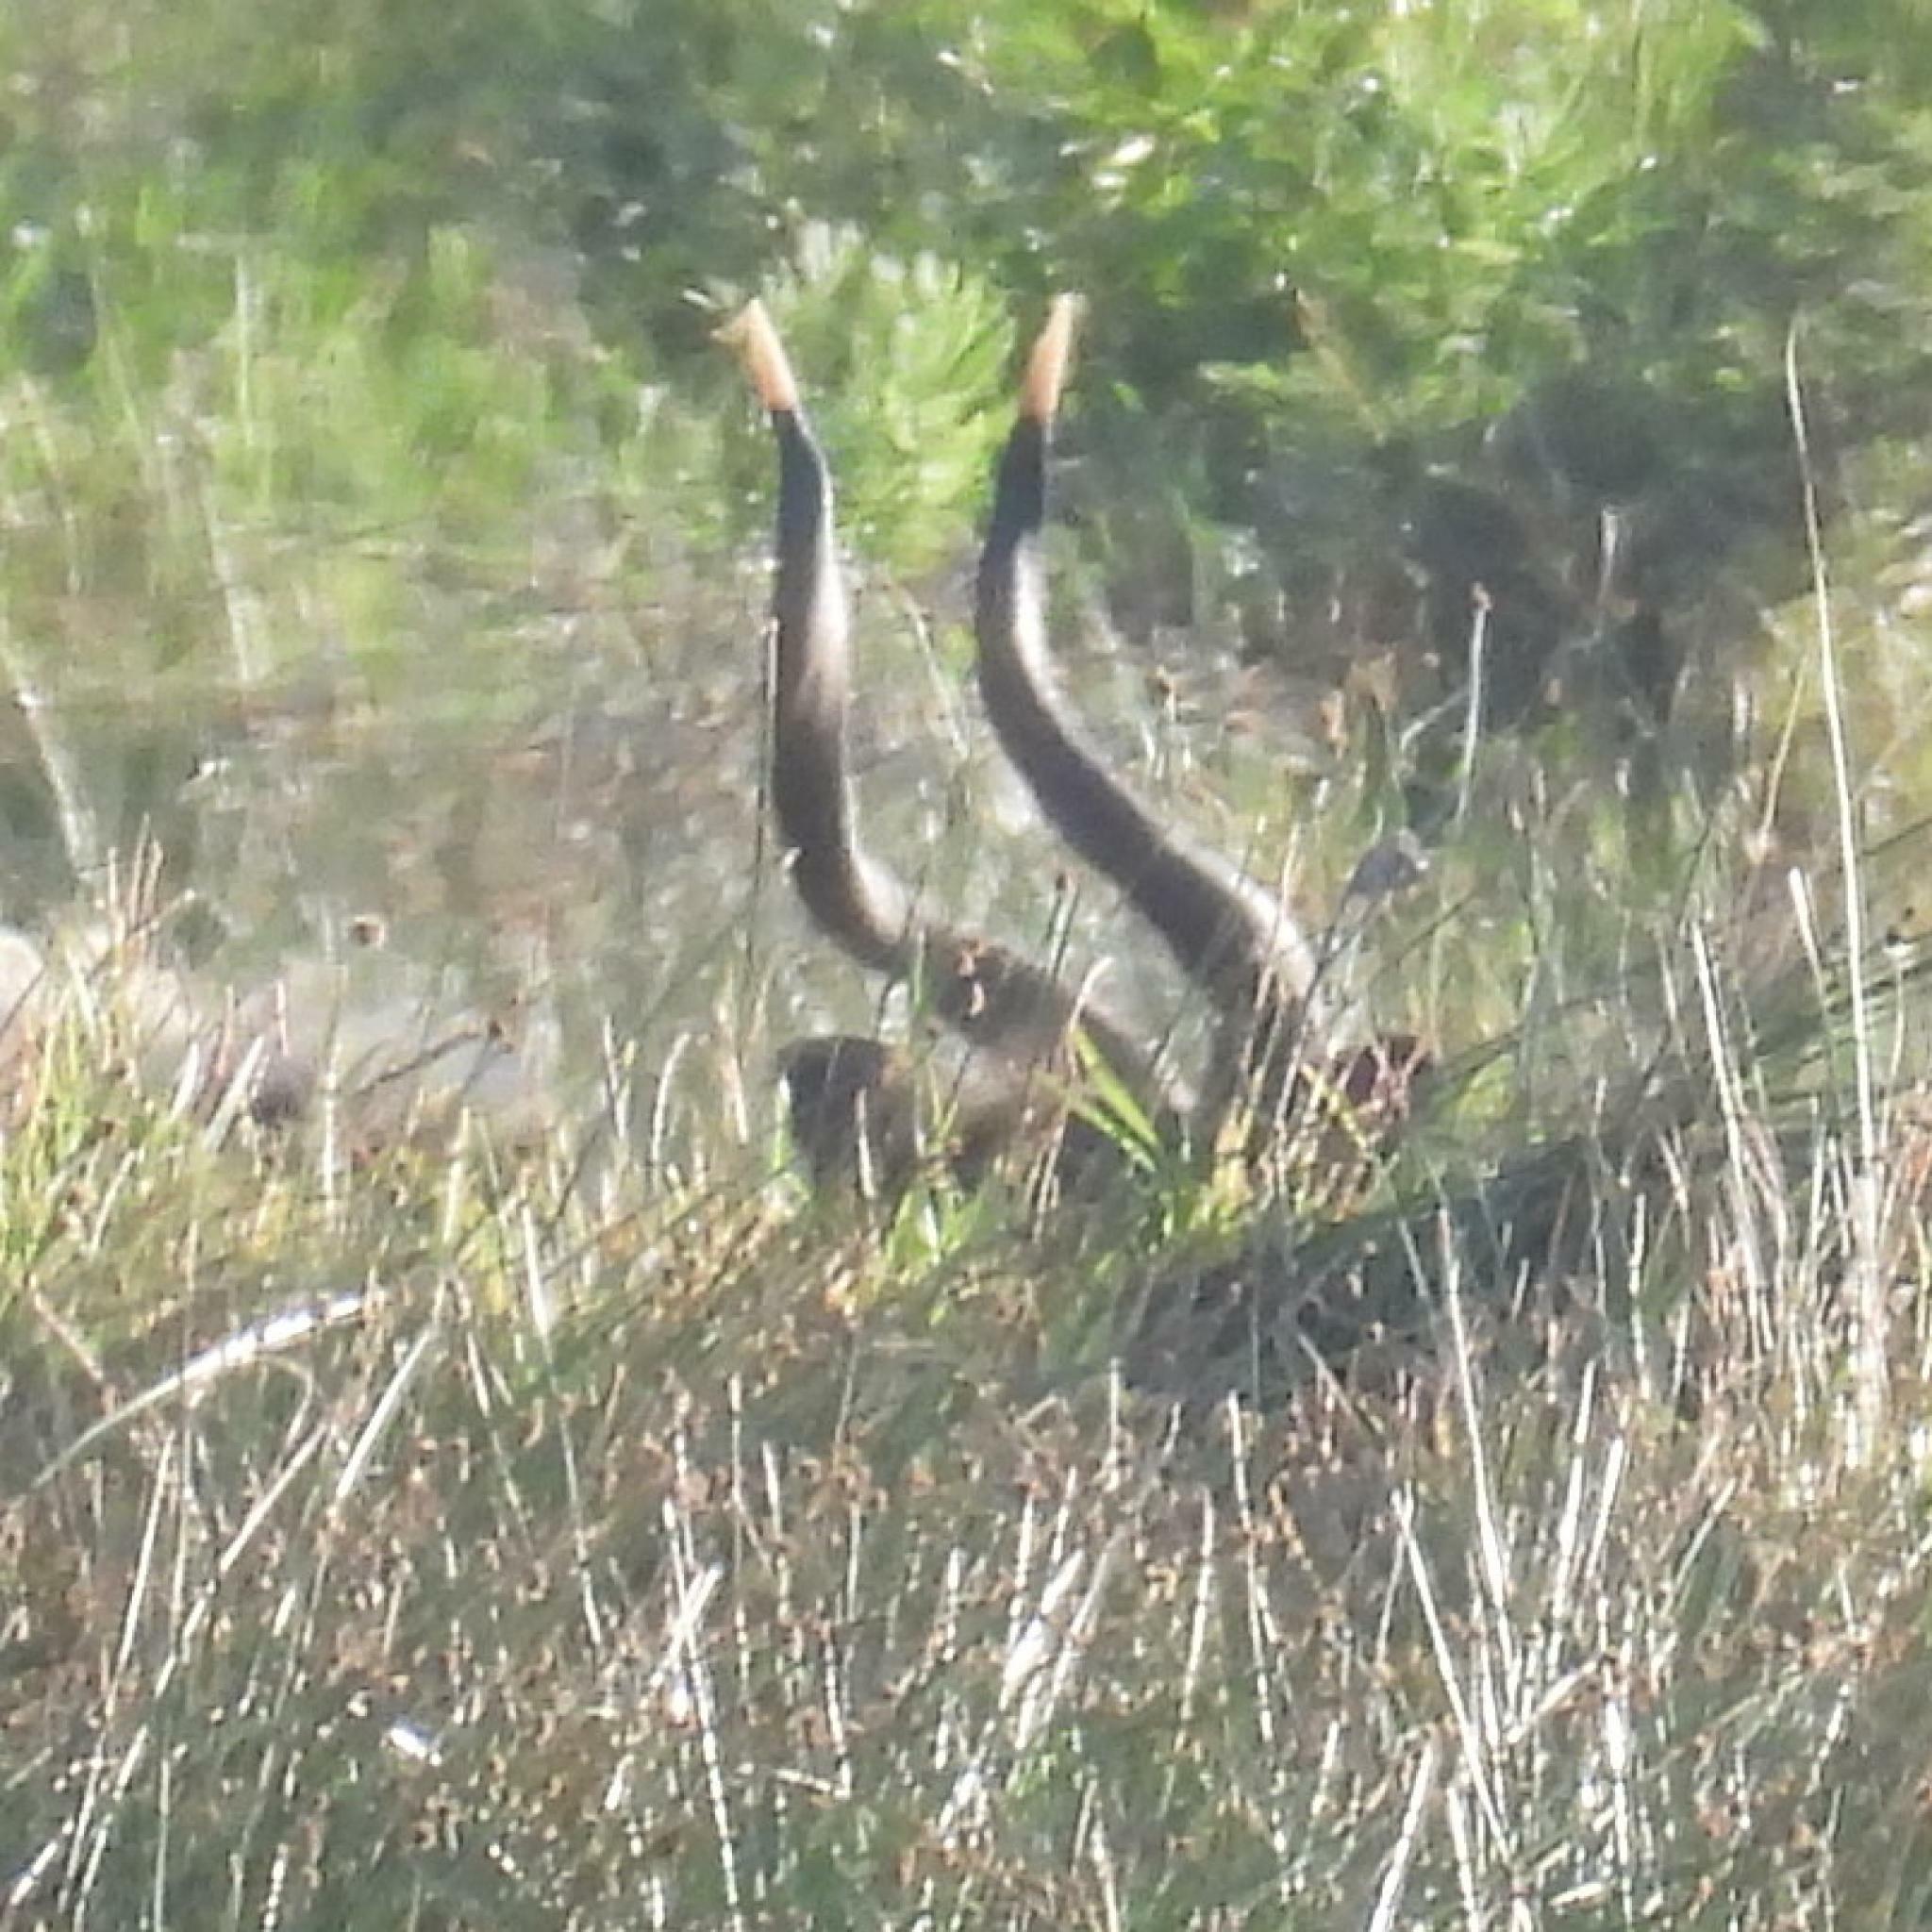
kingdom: Animalia
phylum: Chordata
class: Mammalia
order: Artiodactyla
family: Bovidae
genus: Tragelaphus
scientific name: Tragelaphus angasii
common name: Nyala
